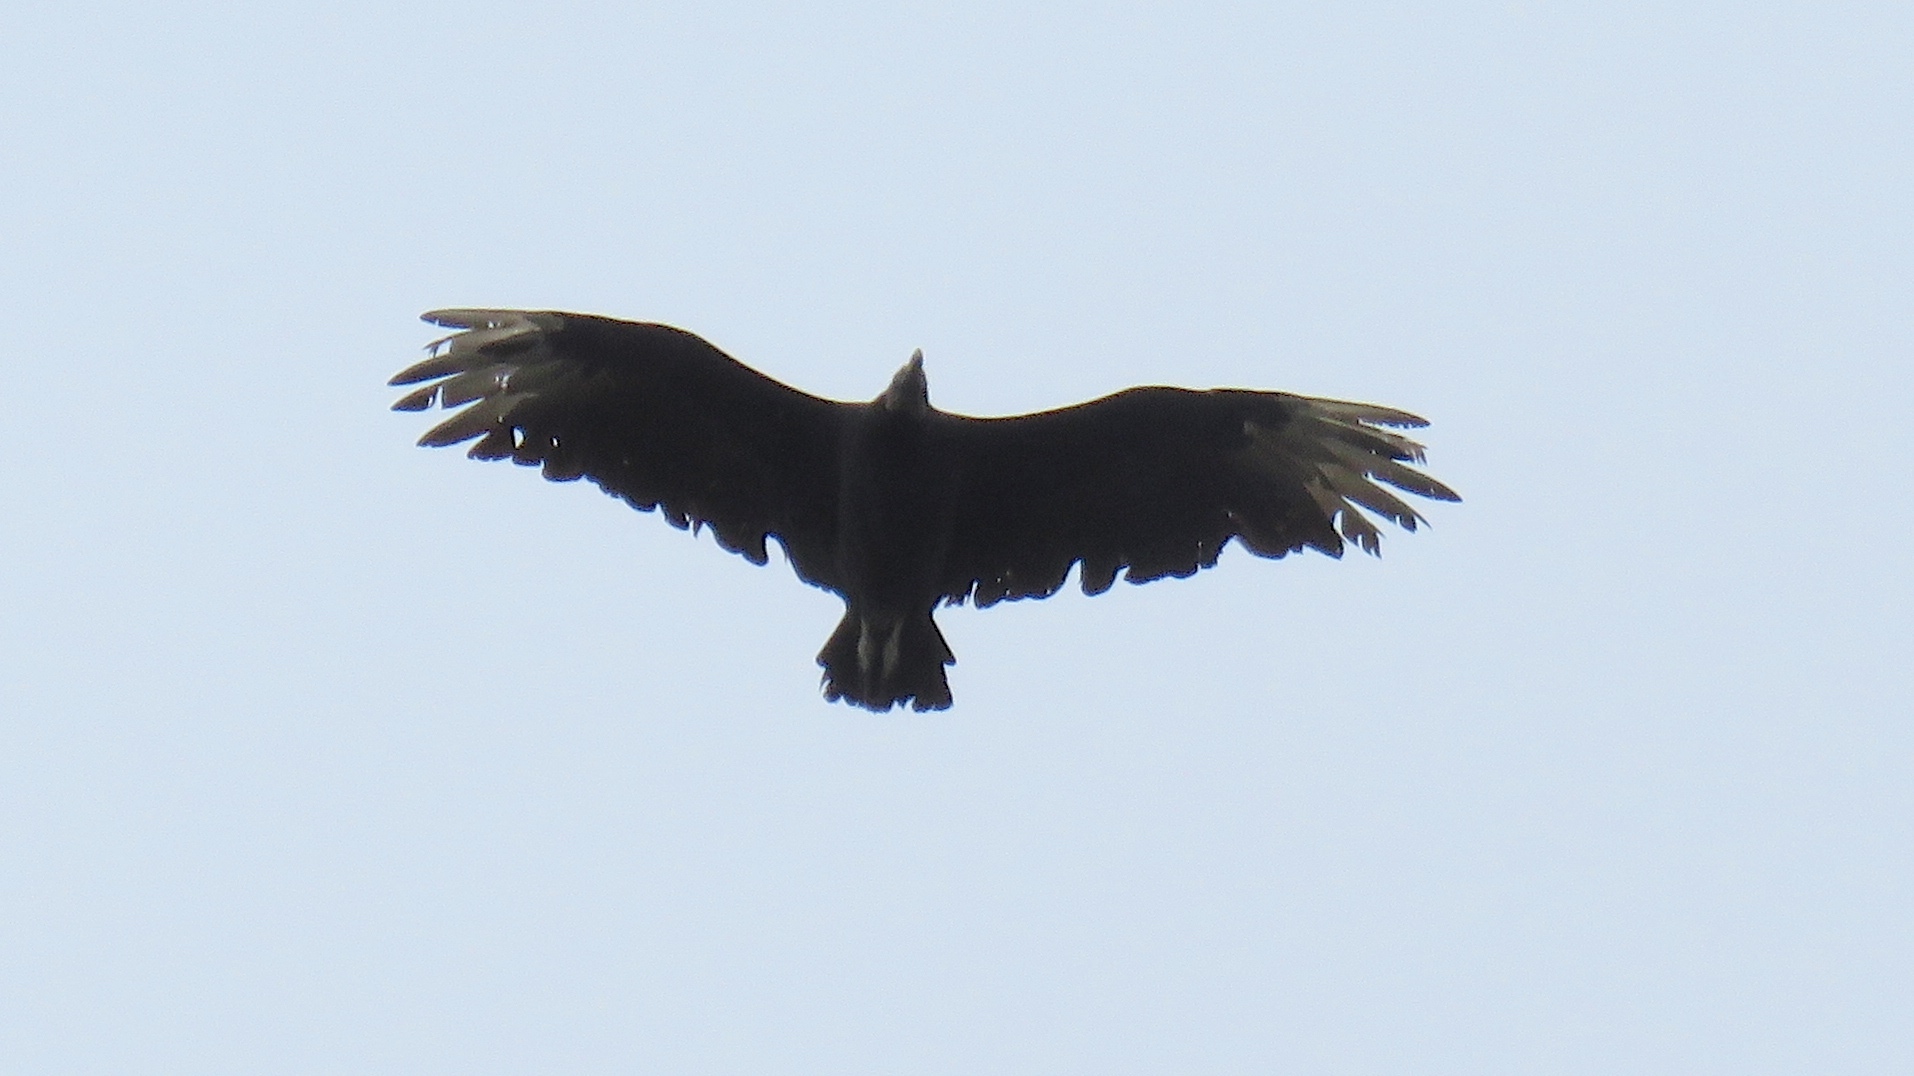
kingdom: Animalia
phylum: Chordata
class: Aves
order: Accipitriformes
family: Cathartidae
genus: Coragyps
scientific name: Coragyps atratus
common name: Black vulture
